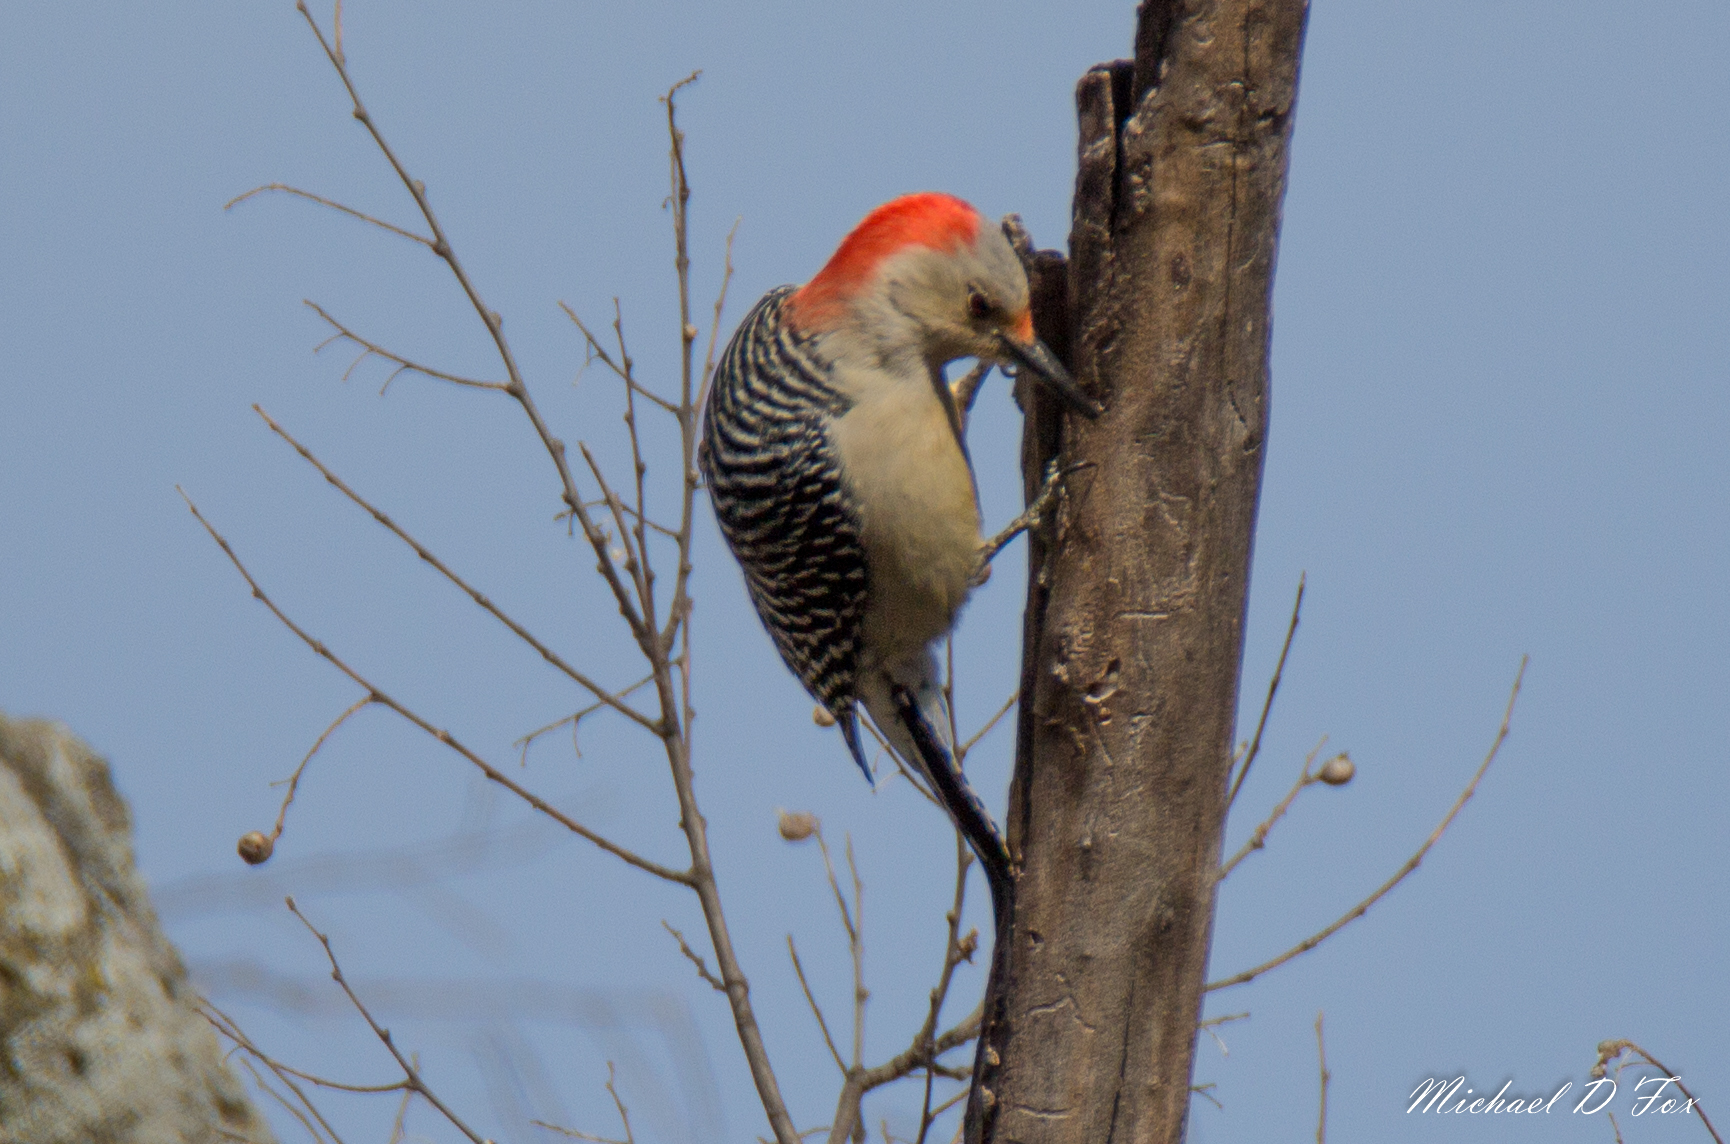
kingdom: Animalia
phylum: Chordata
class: Aves
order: Piciformes
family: Picidae
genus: Melanerpes
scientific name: Melanerpes carolinus
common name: Red-bellied woodpecker
